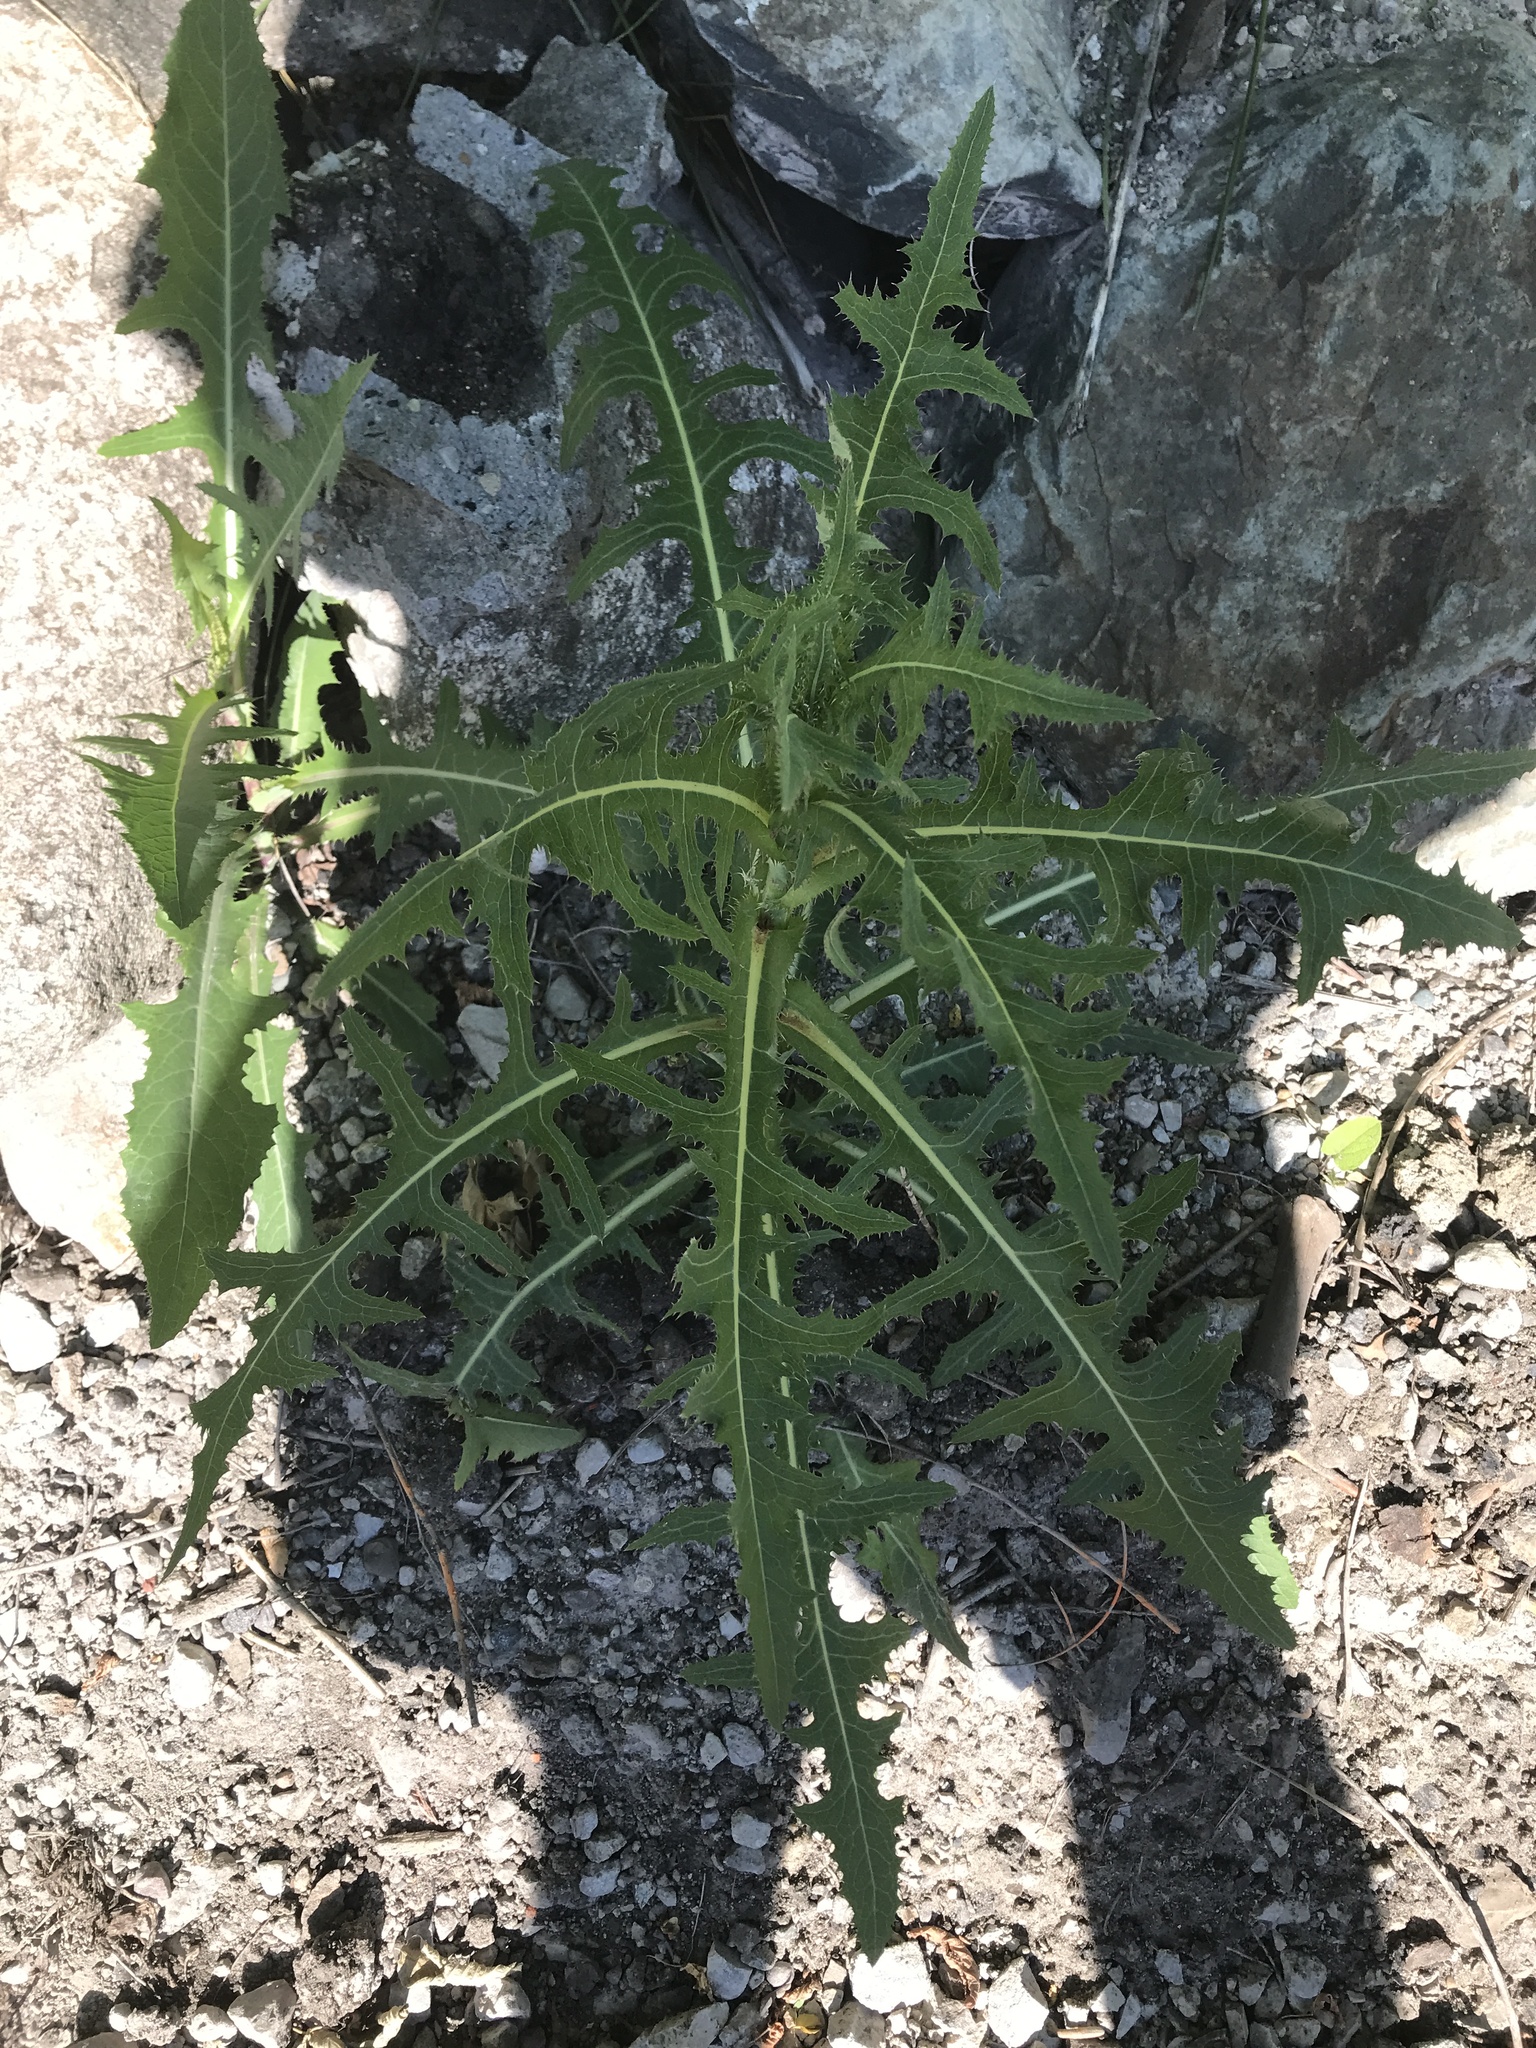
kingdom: Plantae
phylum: Tracheophyta
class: Magnoliopsida
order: Asterales
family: Asteraceae
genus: Lactuca
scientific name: Lactuca serriola
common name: Prickly lettuce
